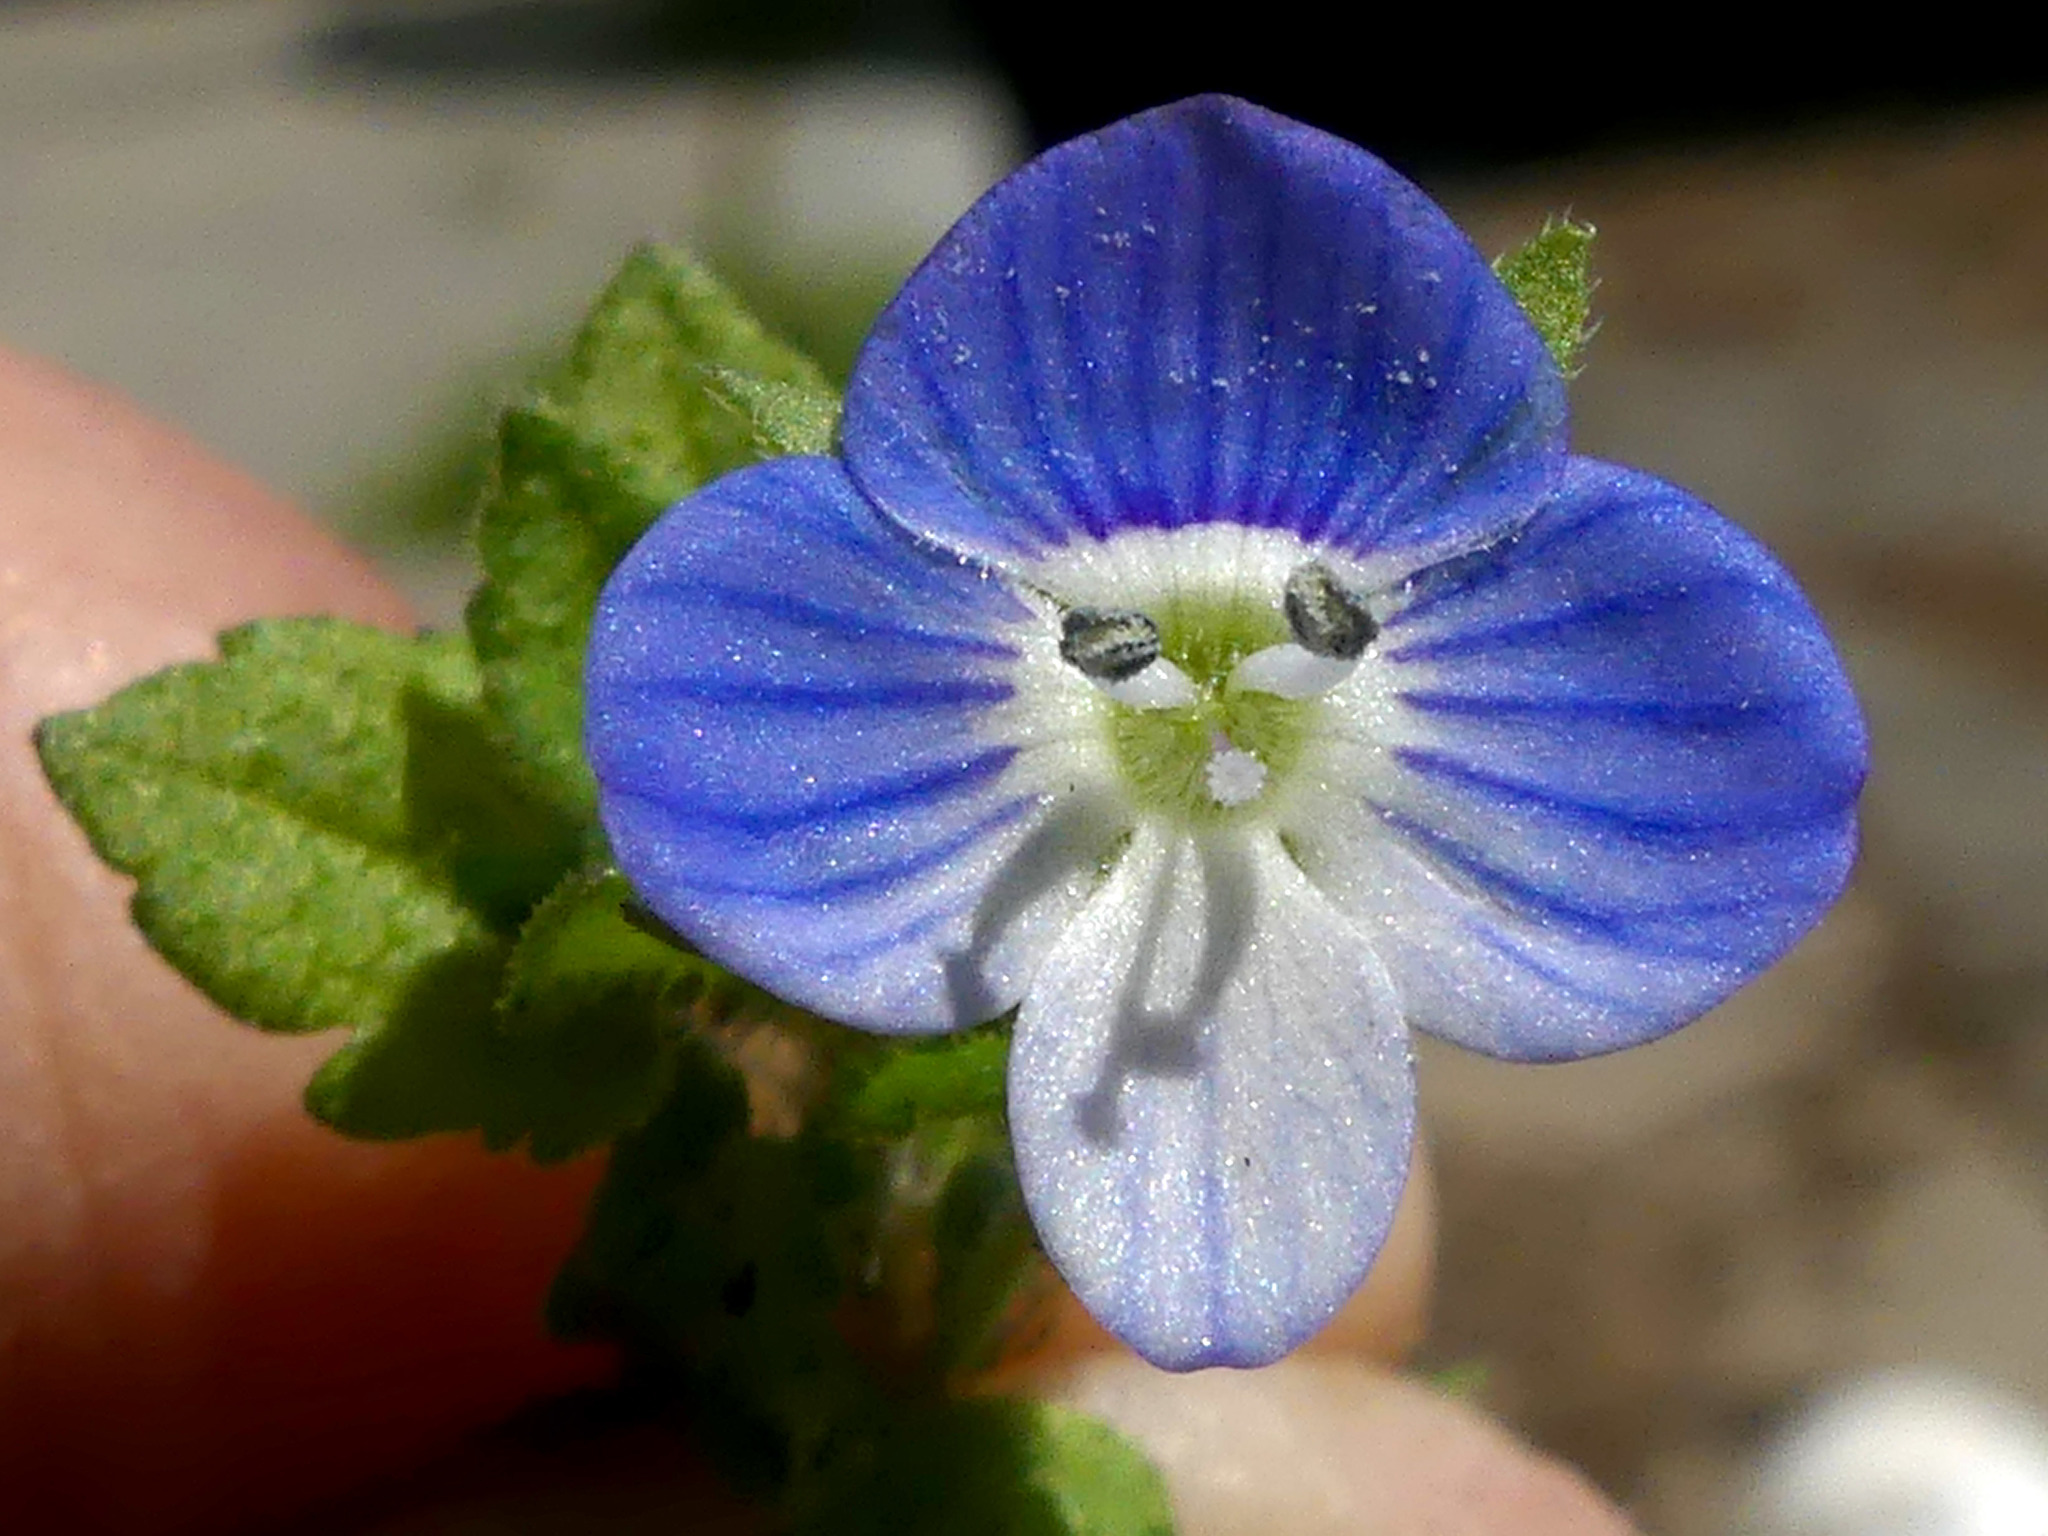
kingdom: Plantae
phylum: Tracheophyta
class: Magnoliopsida
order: Lamiales
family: Plantaginaceae
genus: Veronica
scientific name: Veronica persica
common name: Common field-speedwell
